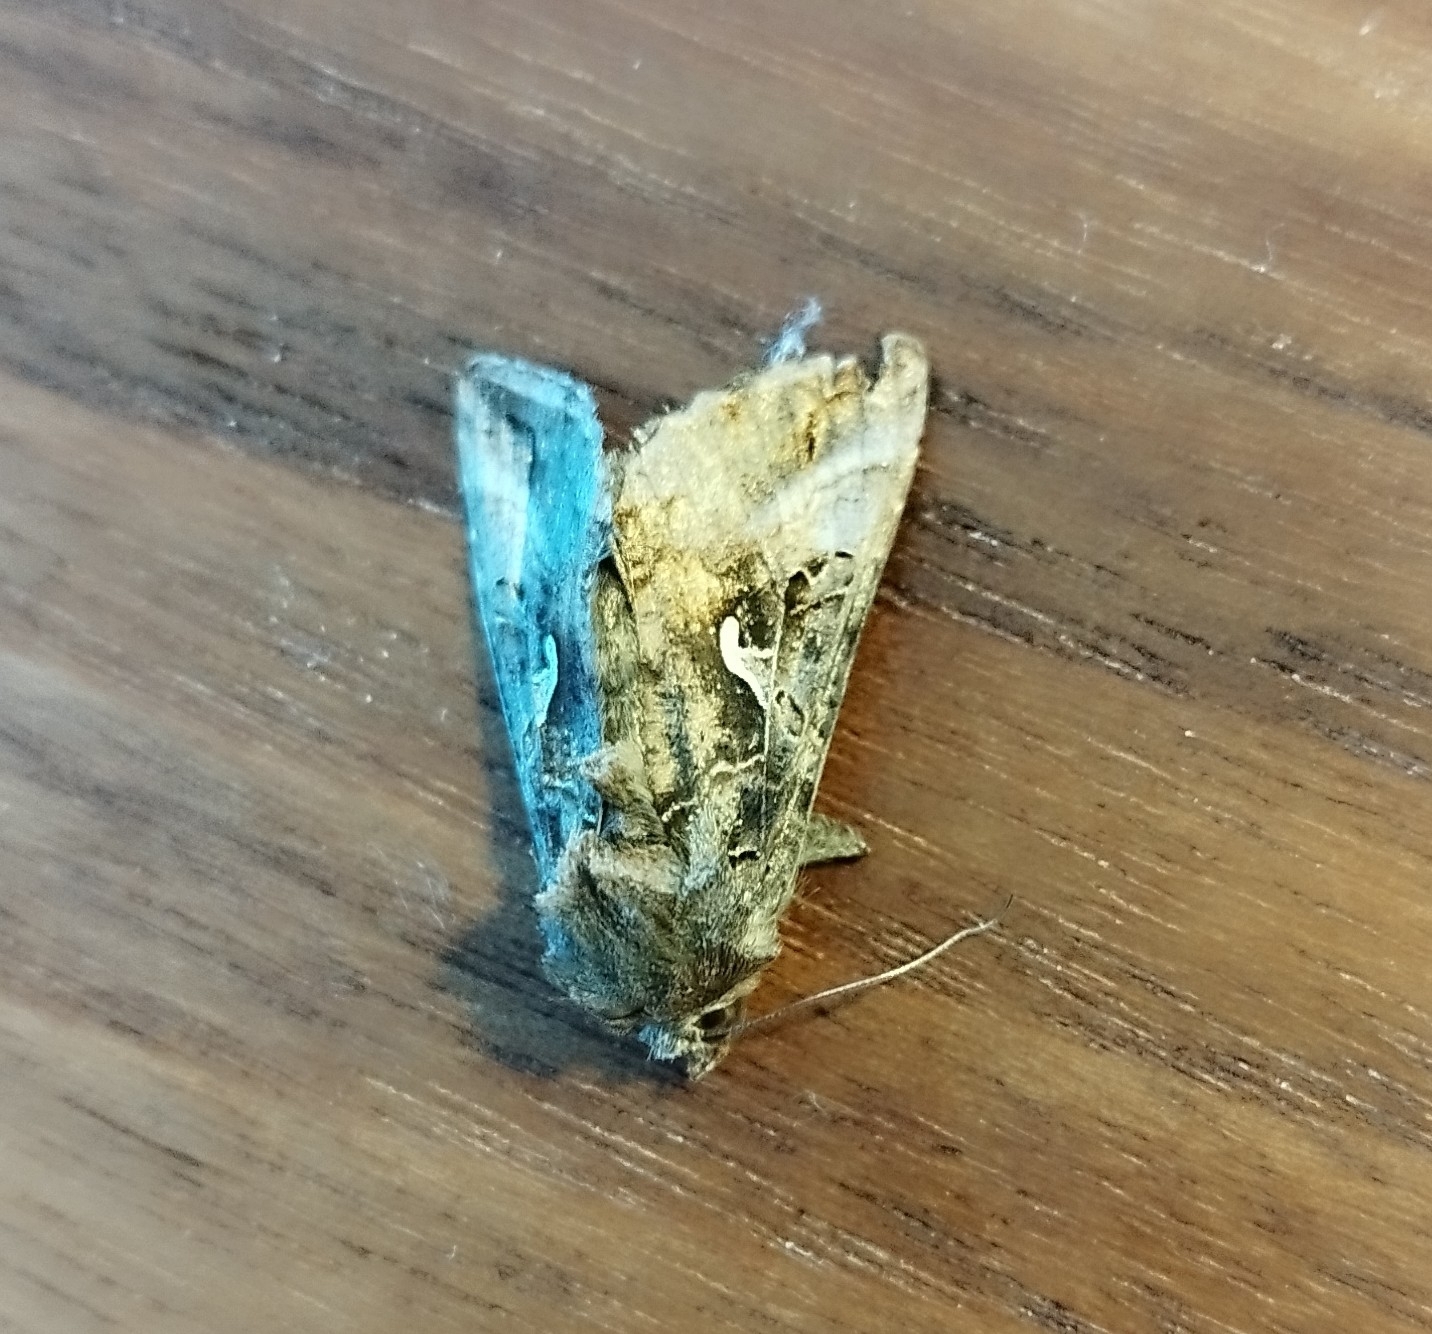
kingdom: Animalia
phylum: Arthropoda
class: Insecta
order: Lepidoptera
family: Noctuidae
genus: Autographa
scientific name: Autographa gamma
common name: Silver y
